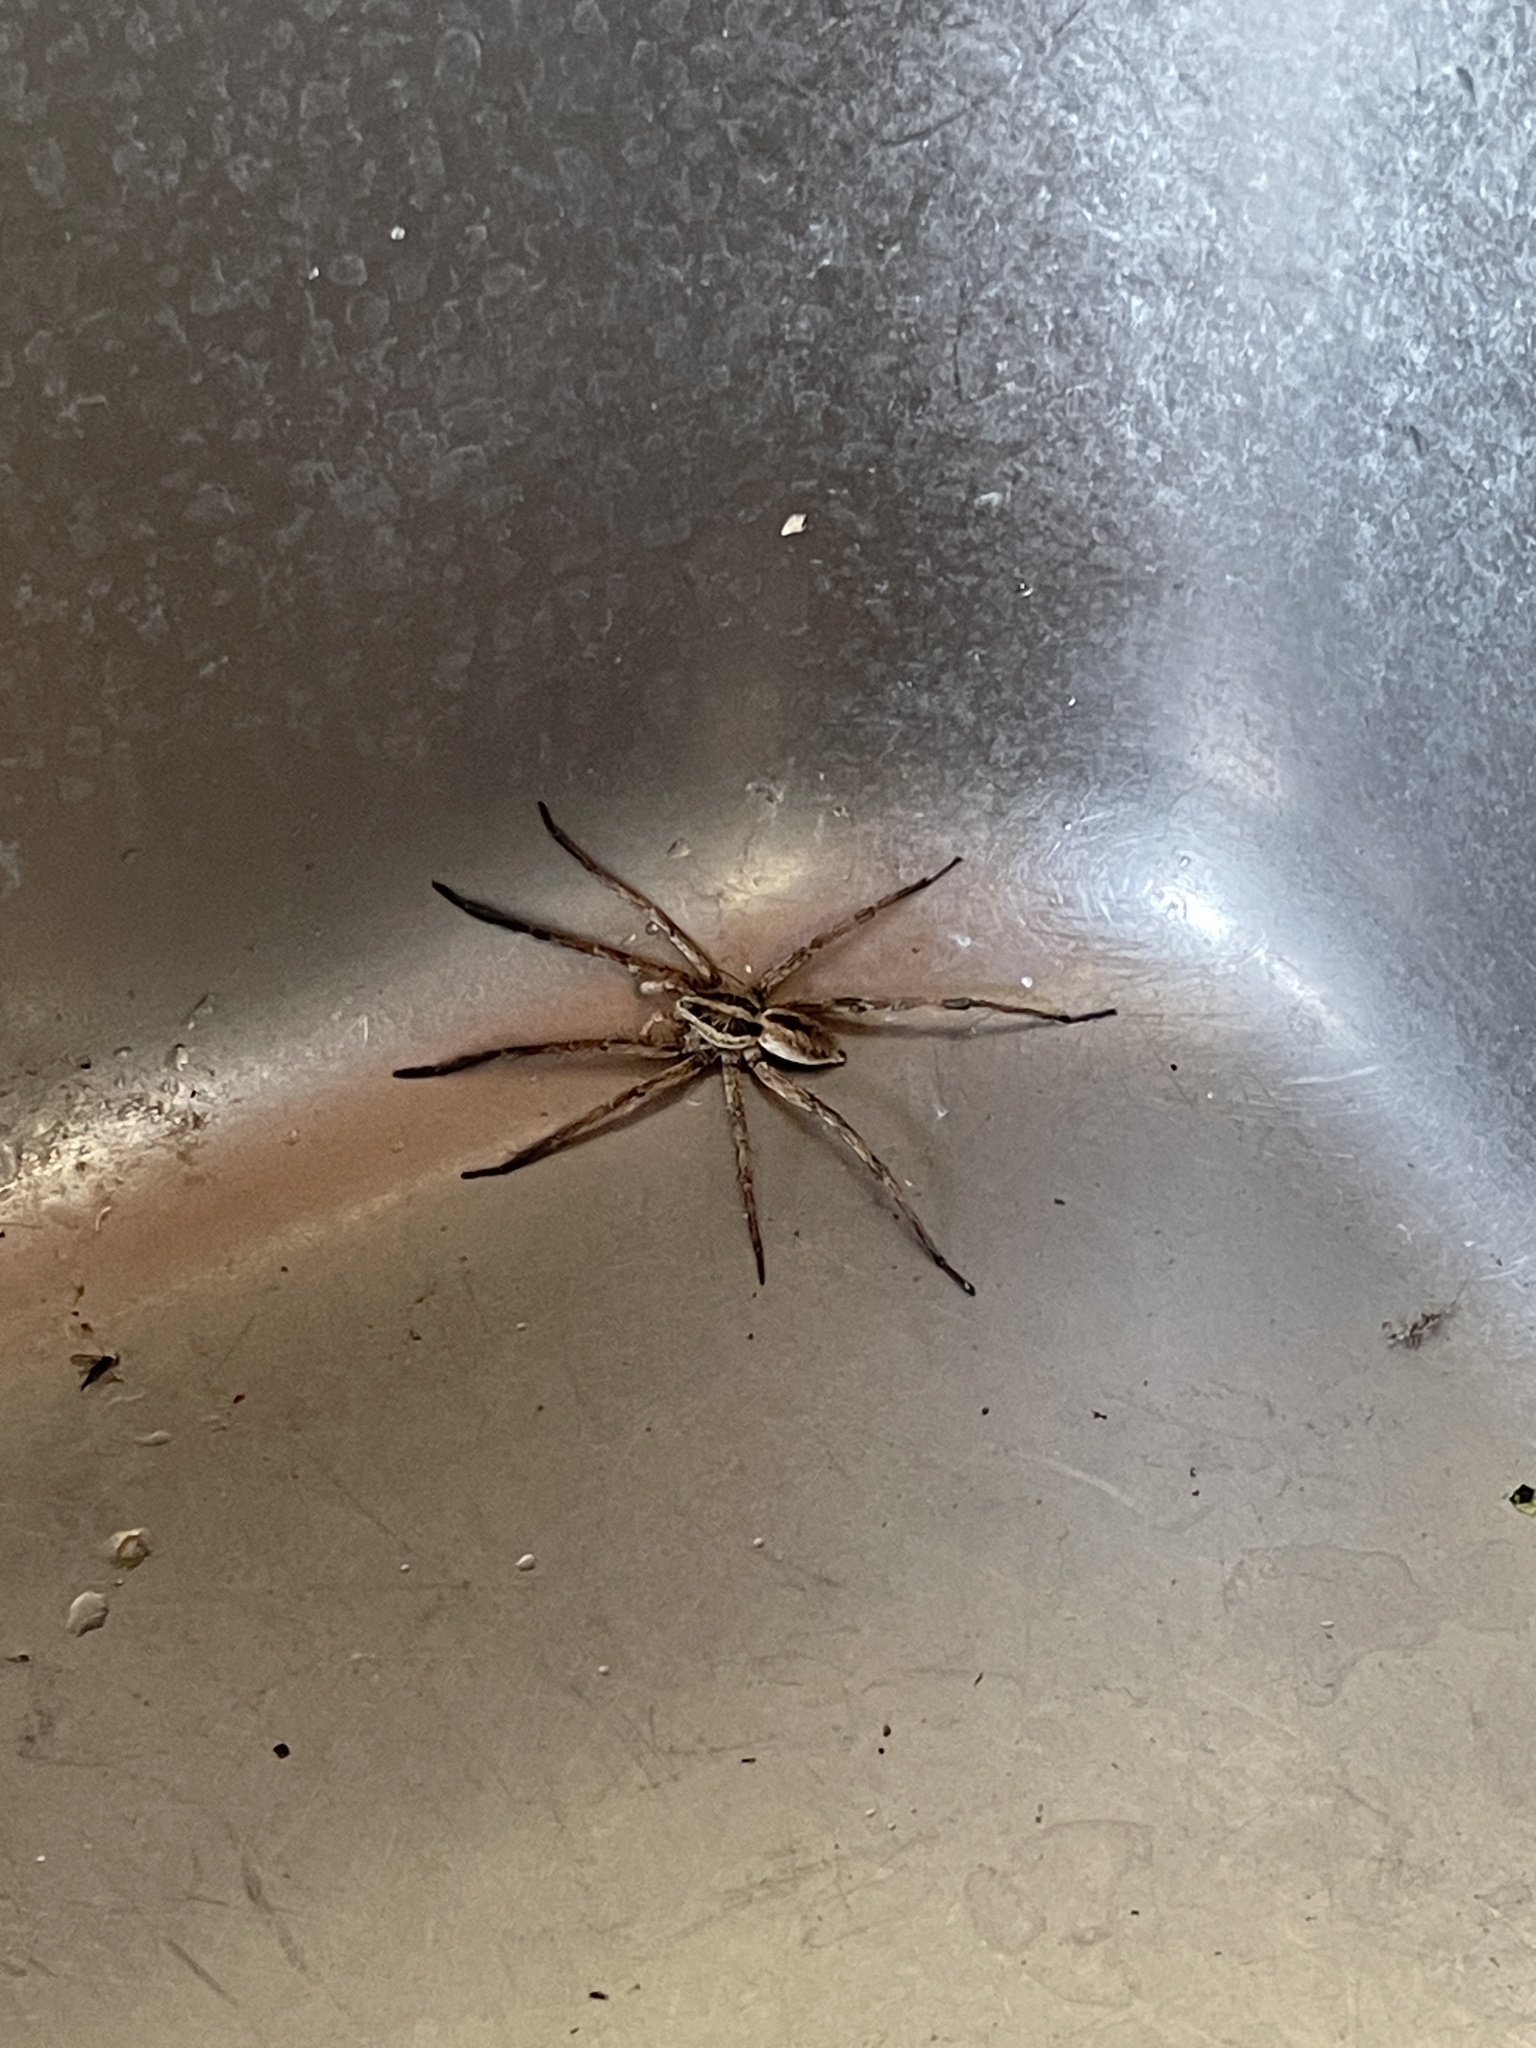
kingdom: Animalia
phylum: Arthropoda
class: Arachnida
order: Araneae
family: Lycosidae
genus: Hogna
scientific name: Hogna radiata
